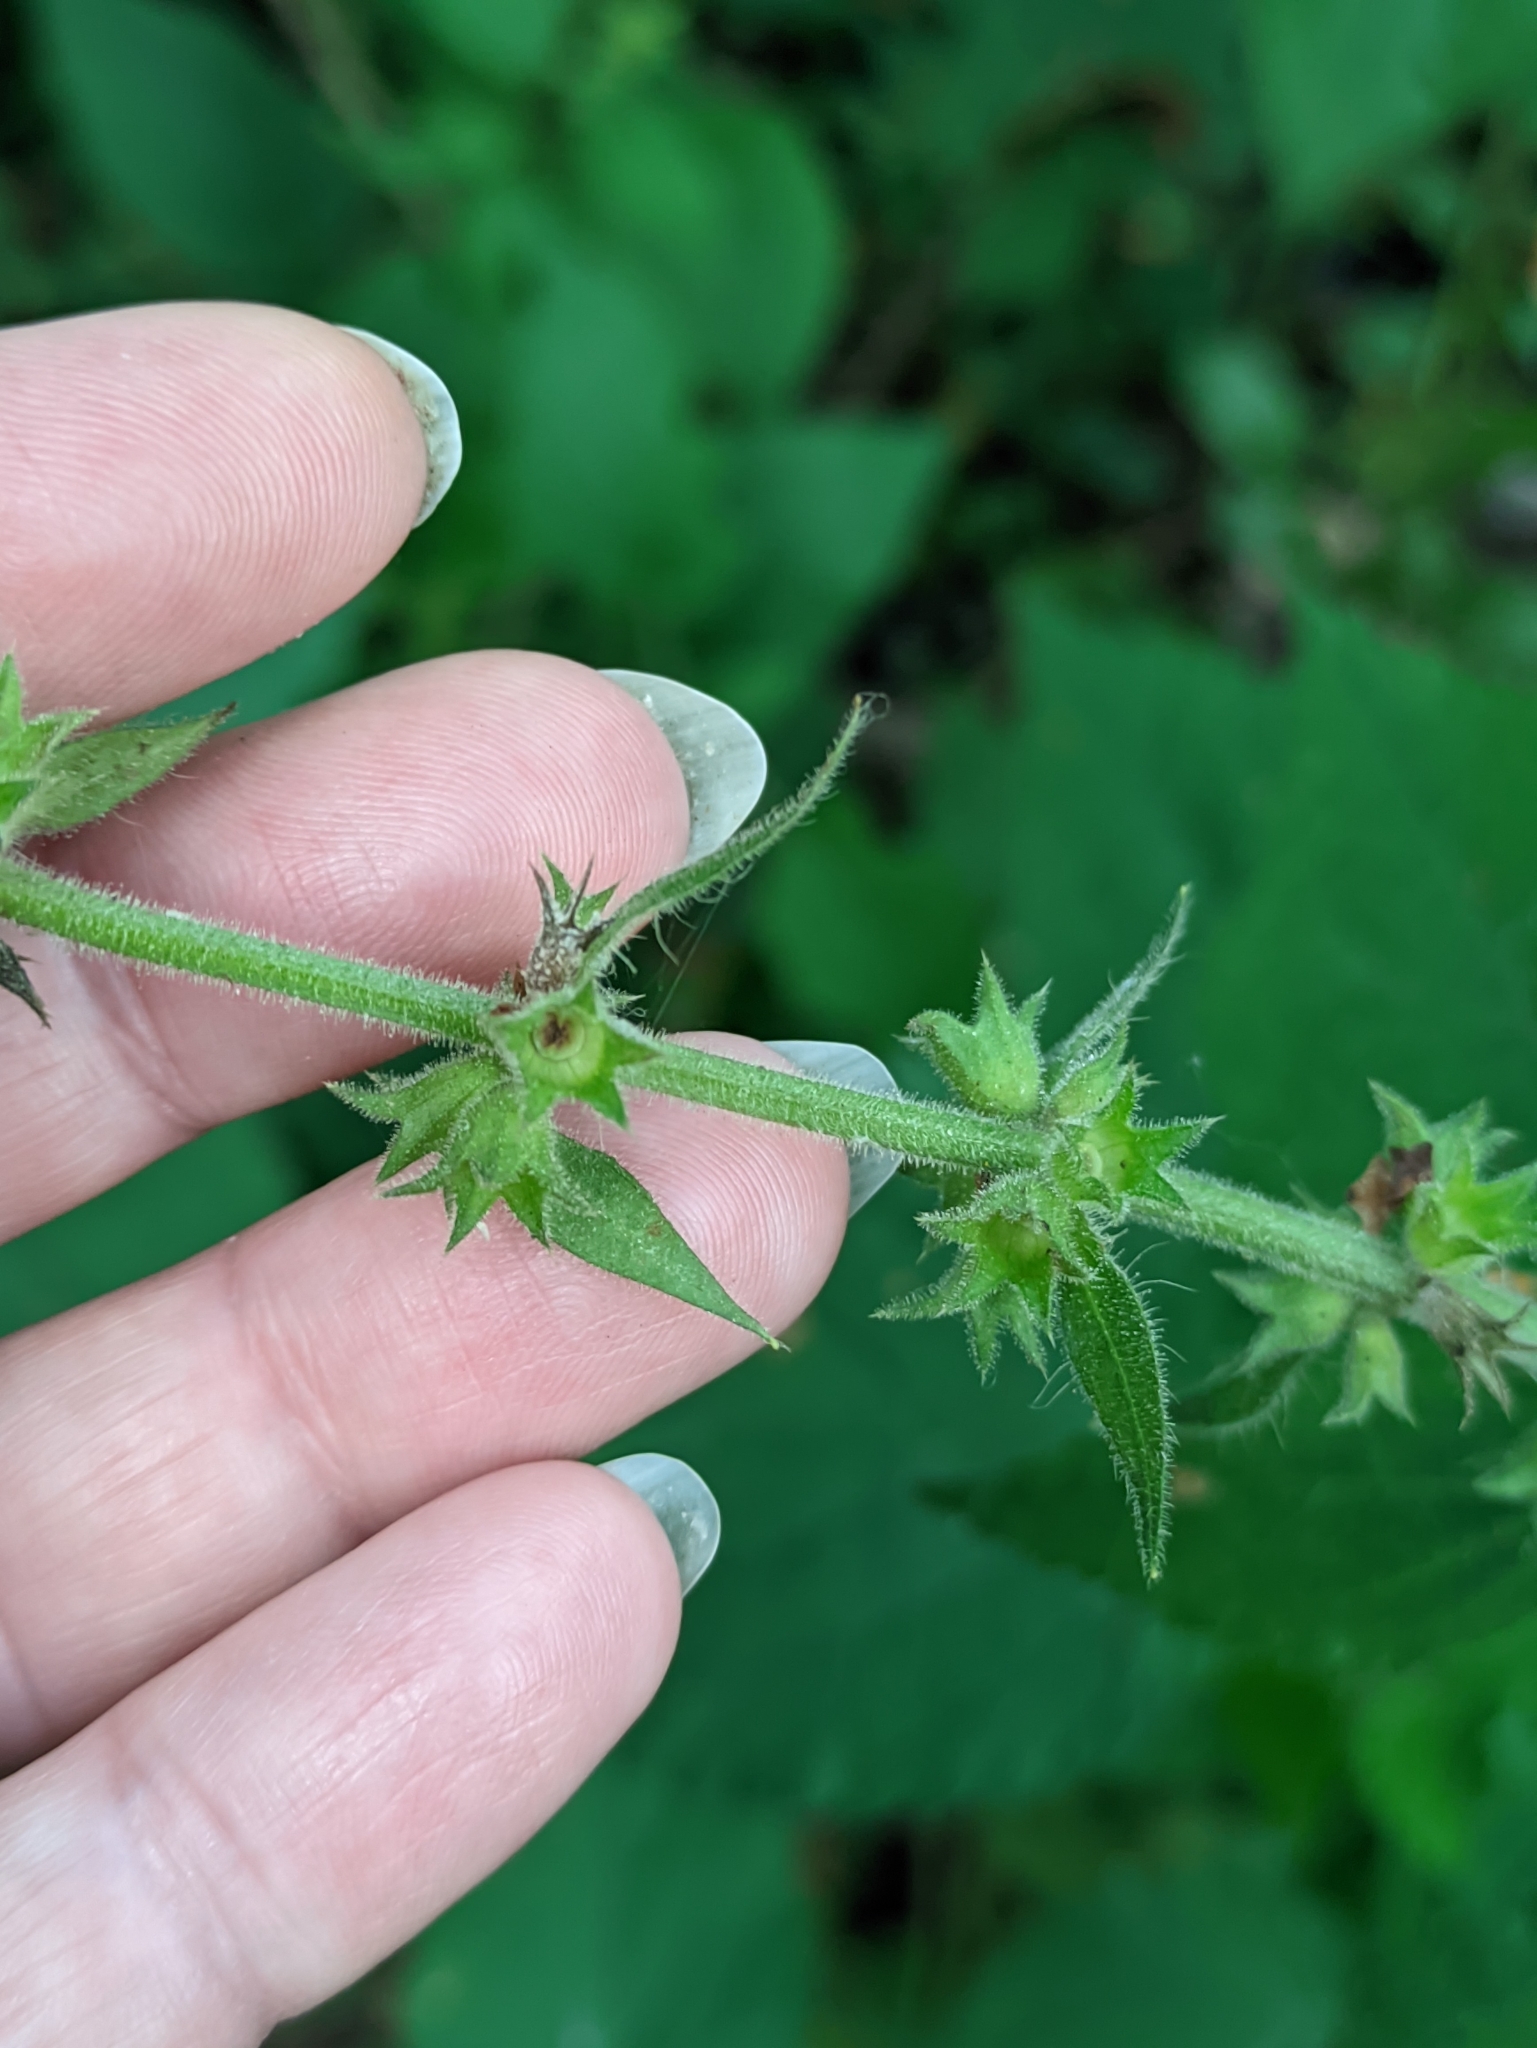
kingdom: Plantae
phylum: Tracheophyta
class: Magnoliopsida
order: Lamiales
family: Lamiaceae
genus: Stachys
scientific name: Stachys sylvatica
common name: Hedge woundwort
